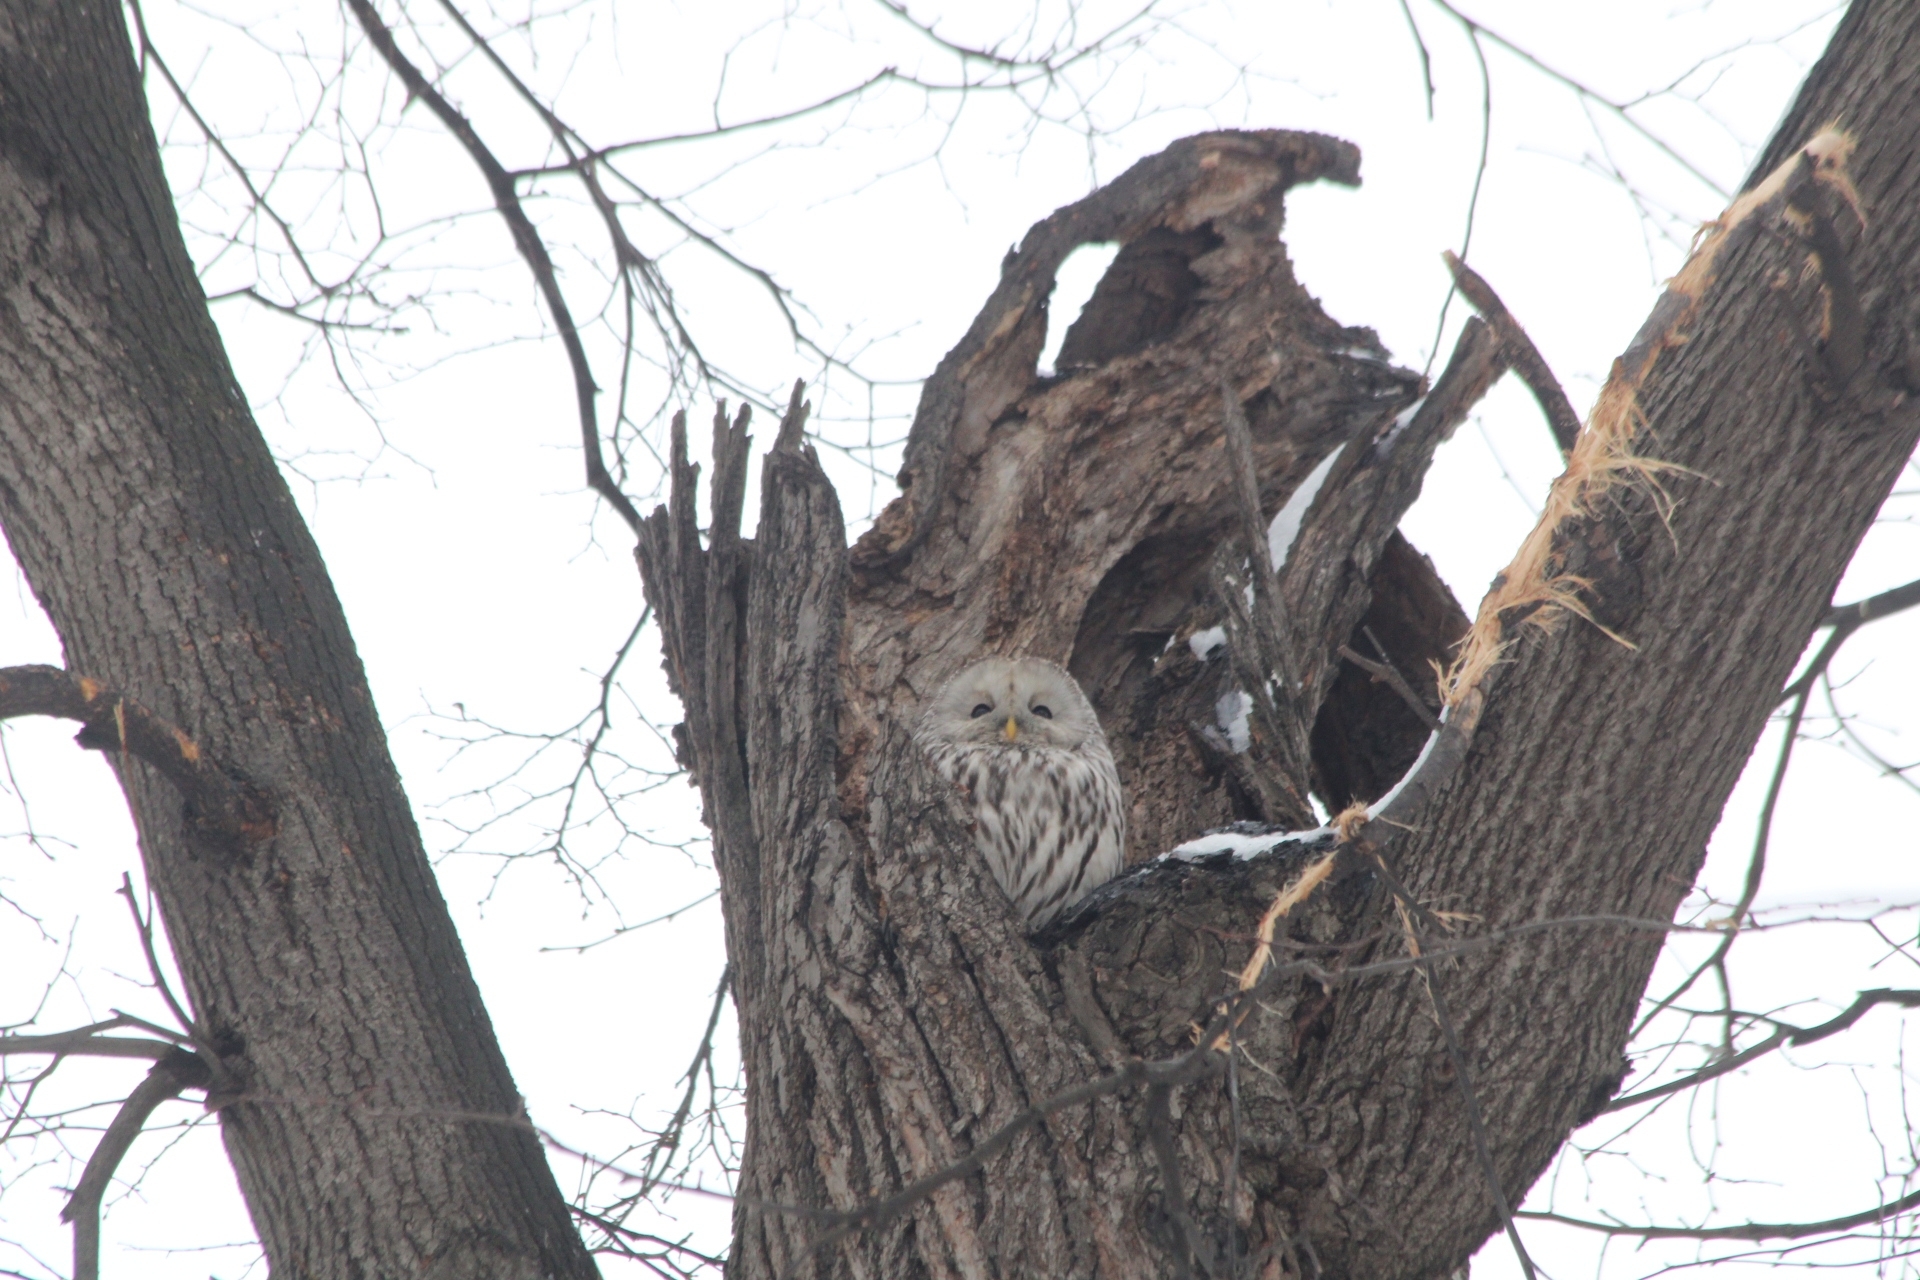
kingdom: Animalia
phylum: Chordata
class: Aves
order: Strigiformes
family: Strigidae
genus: Strix
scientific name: Strix uralensis
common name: Ural owl
